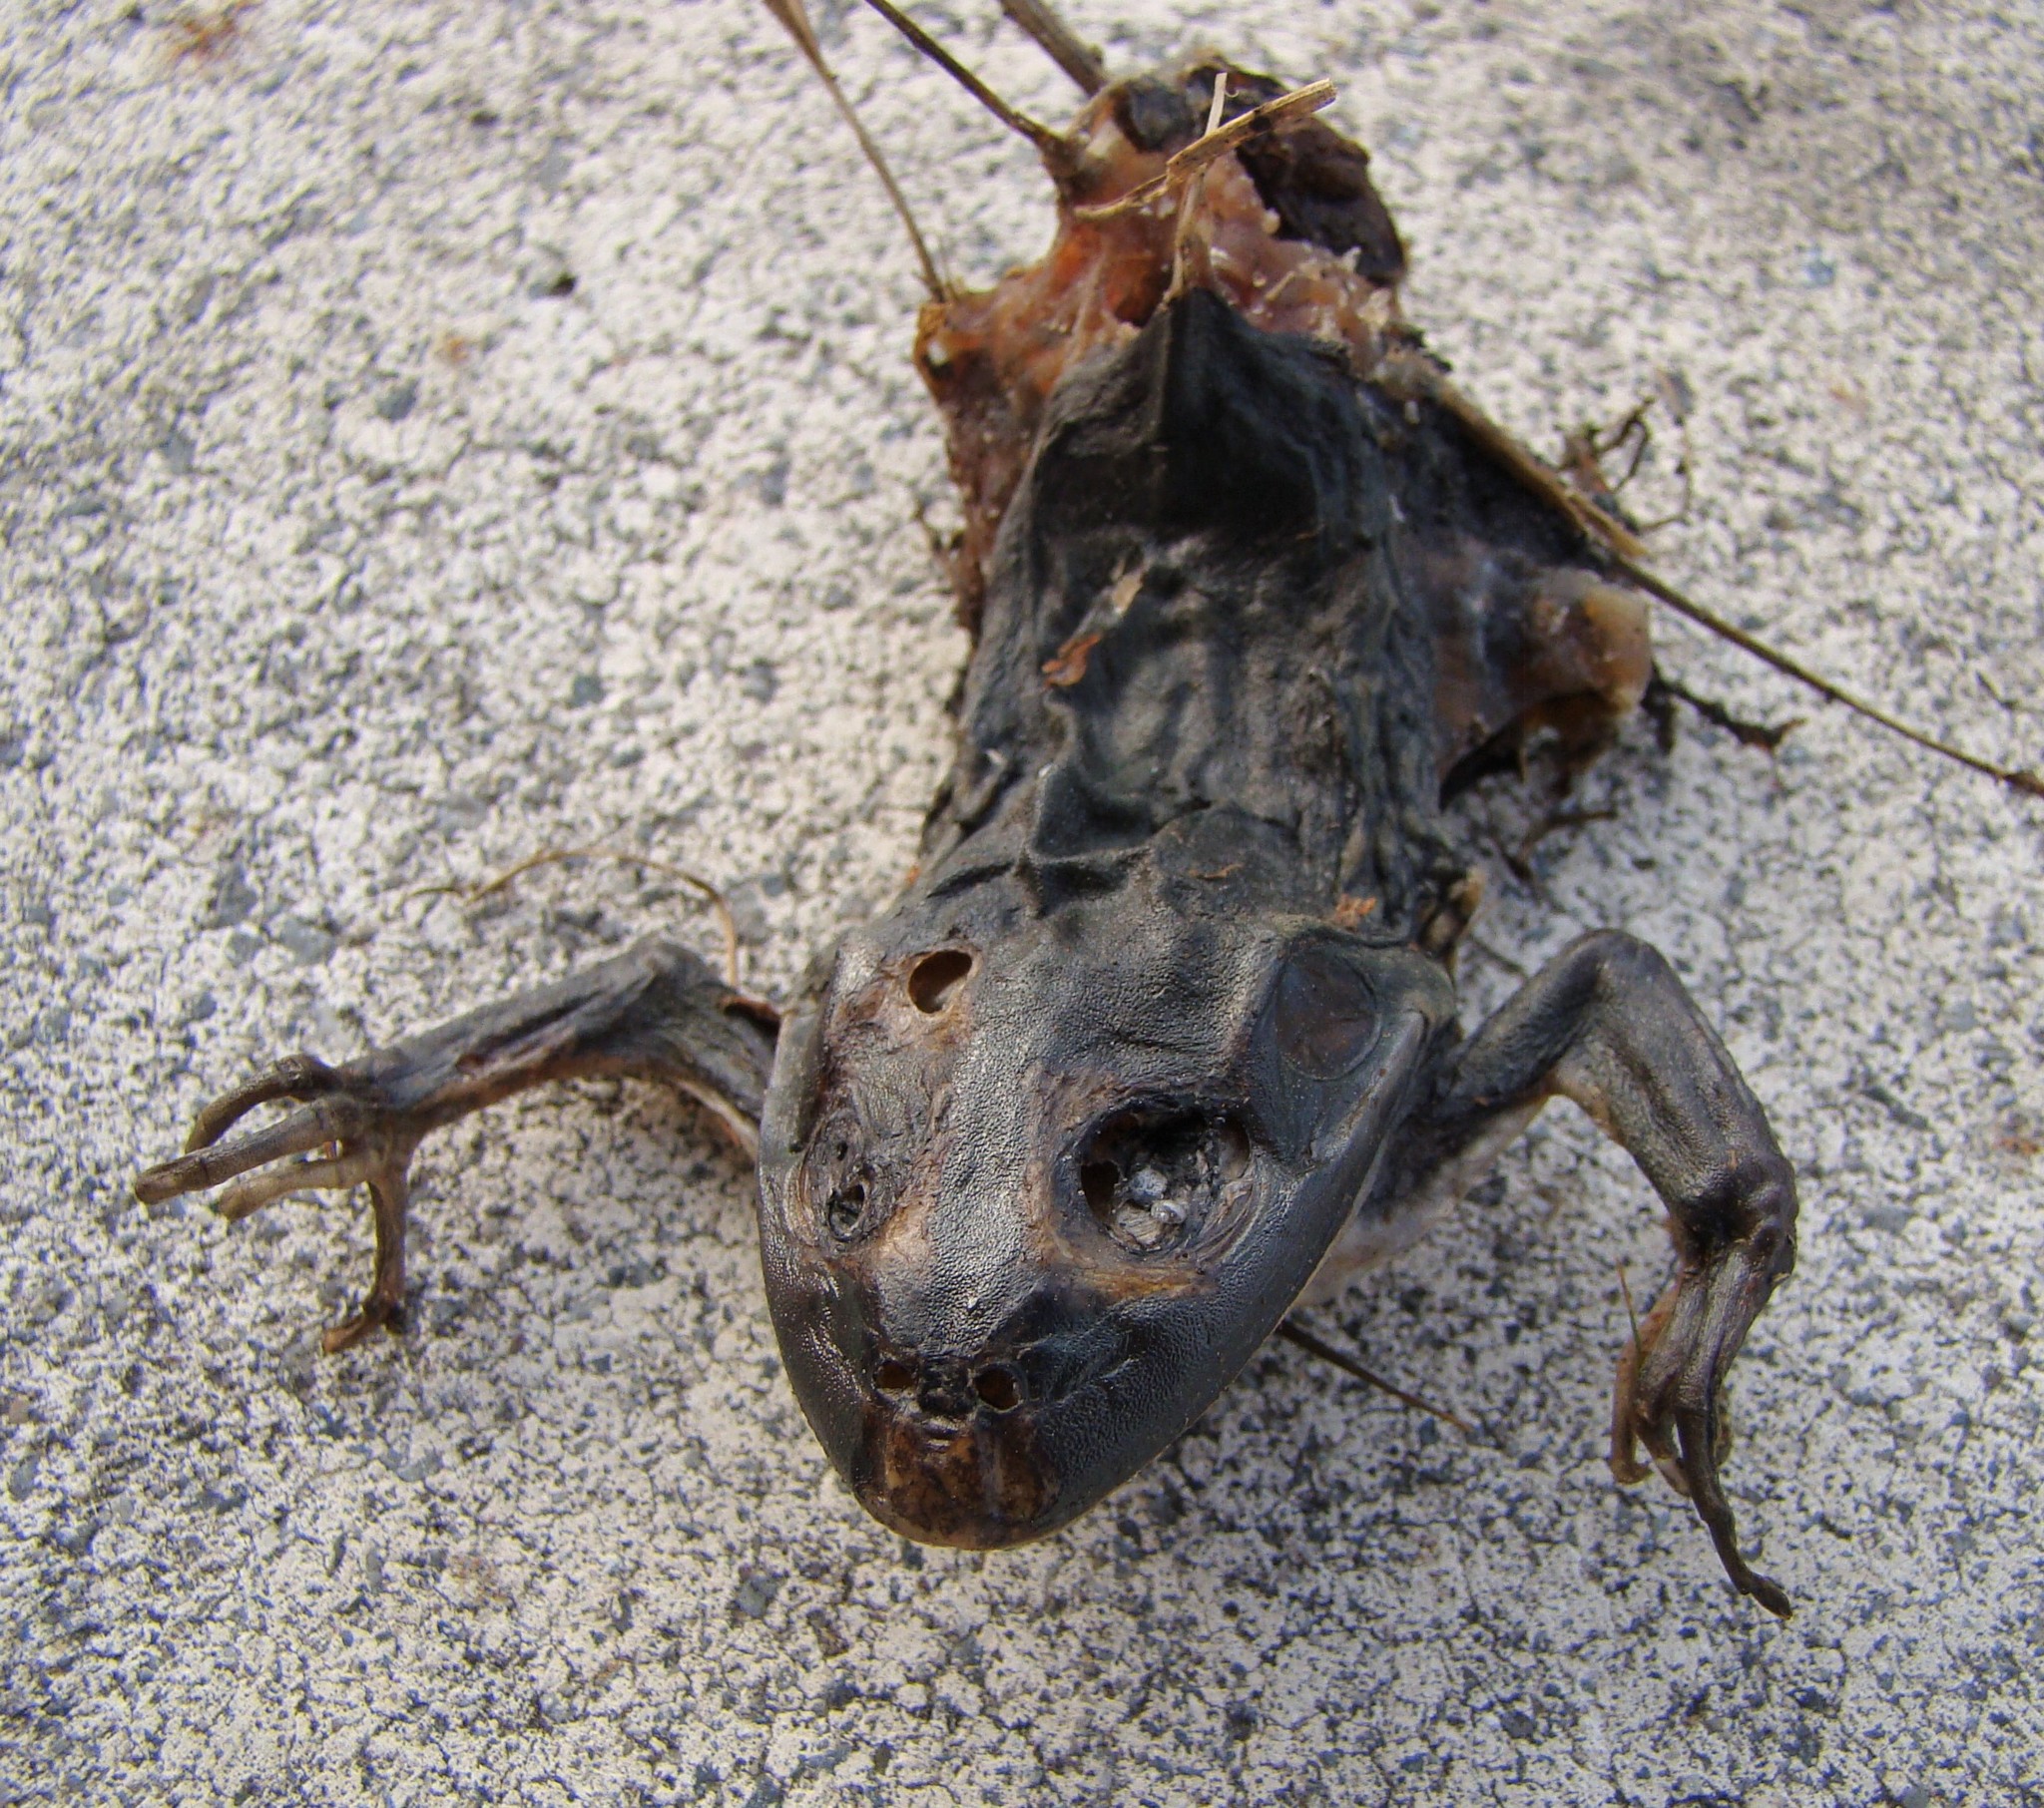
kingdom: Animalia
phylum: Chordata
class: Amphibia
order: Anura
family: Pelodryadidae
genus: Ranoidea
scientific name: Ranoidea raniformis
